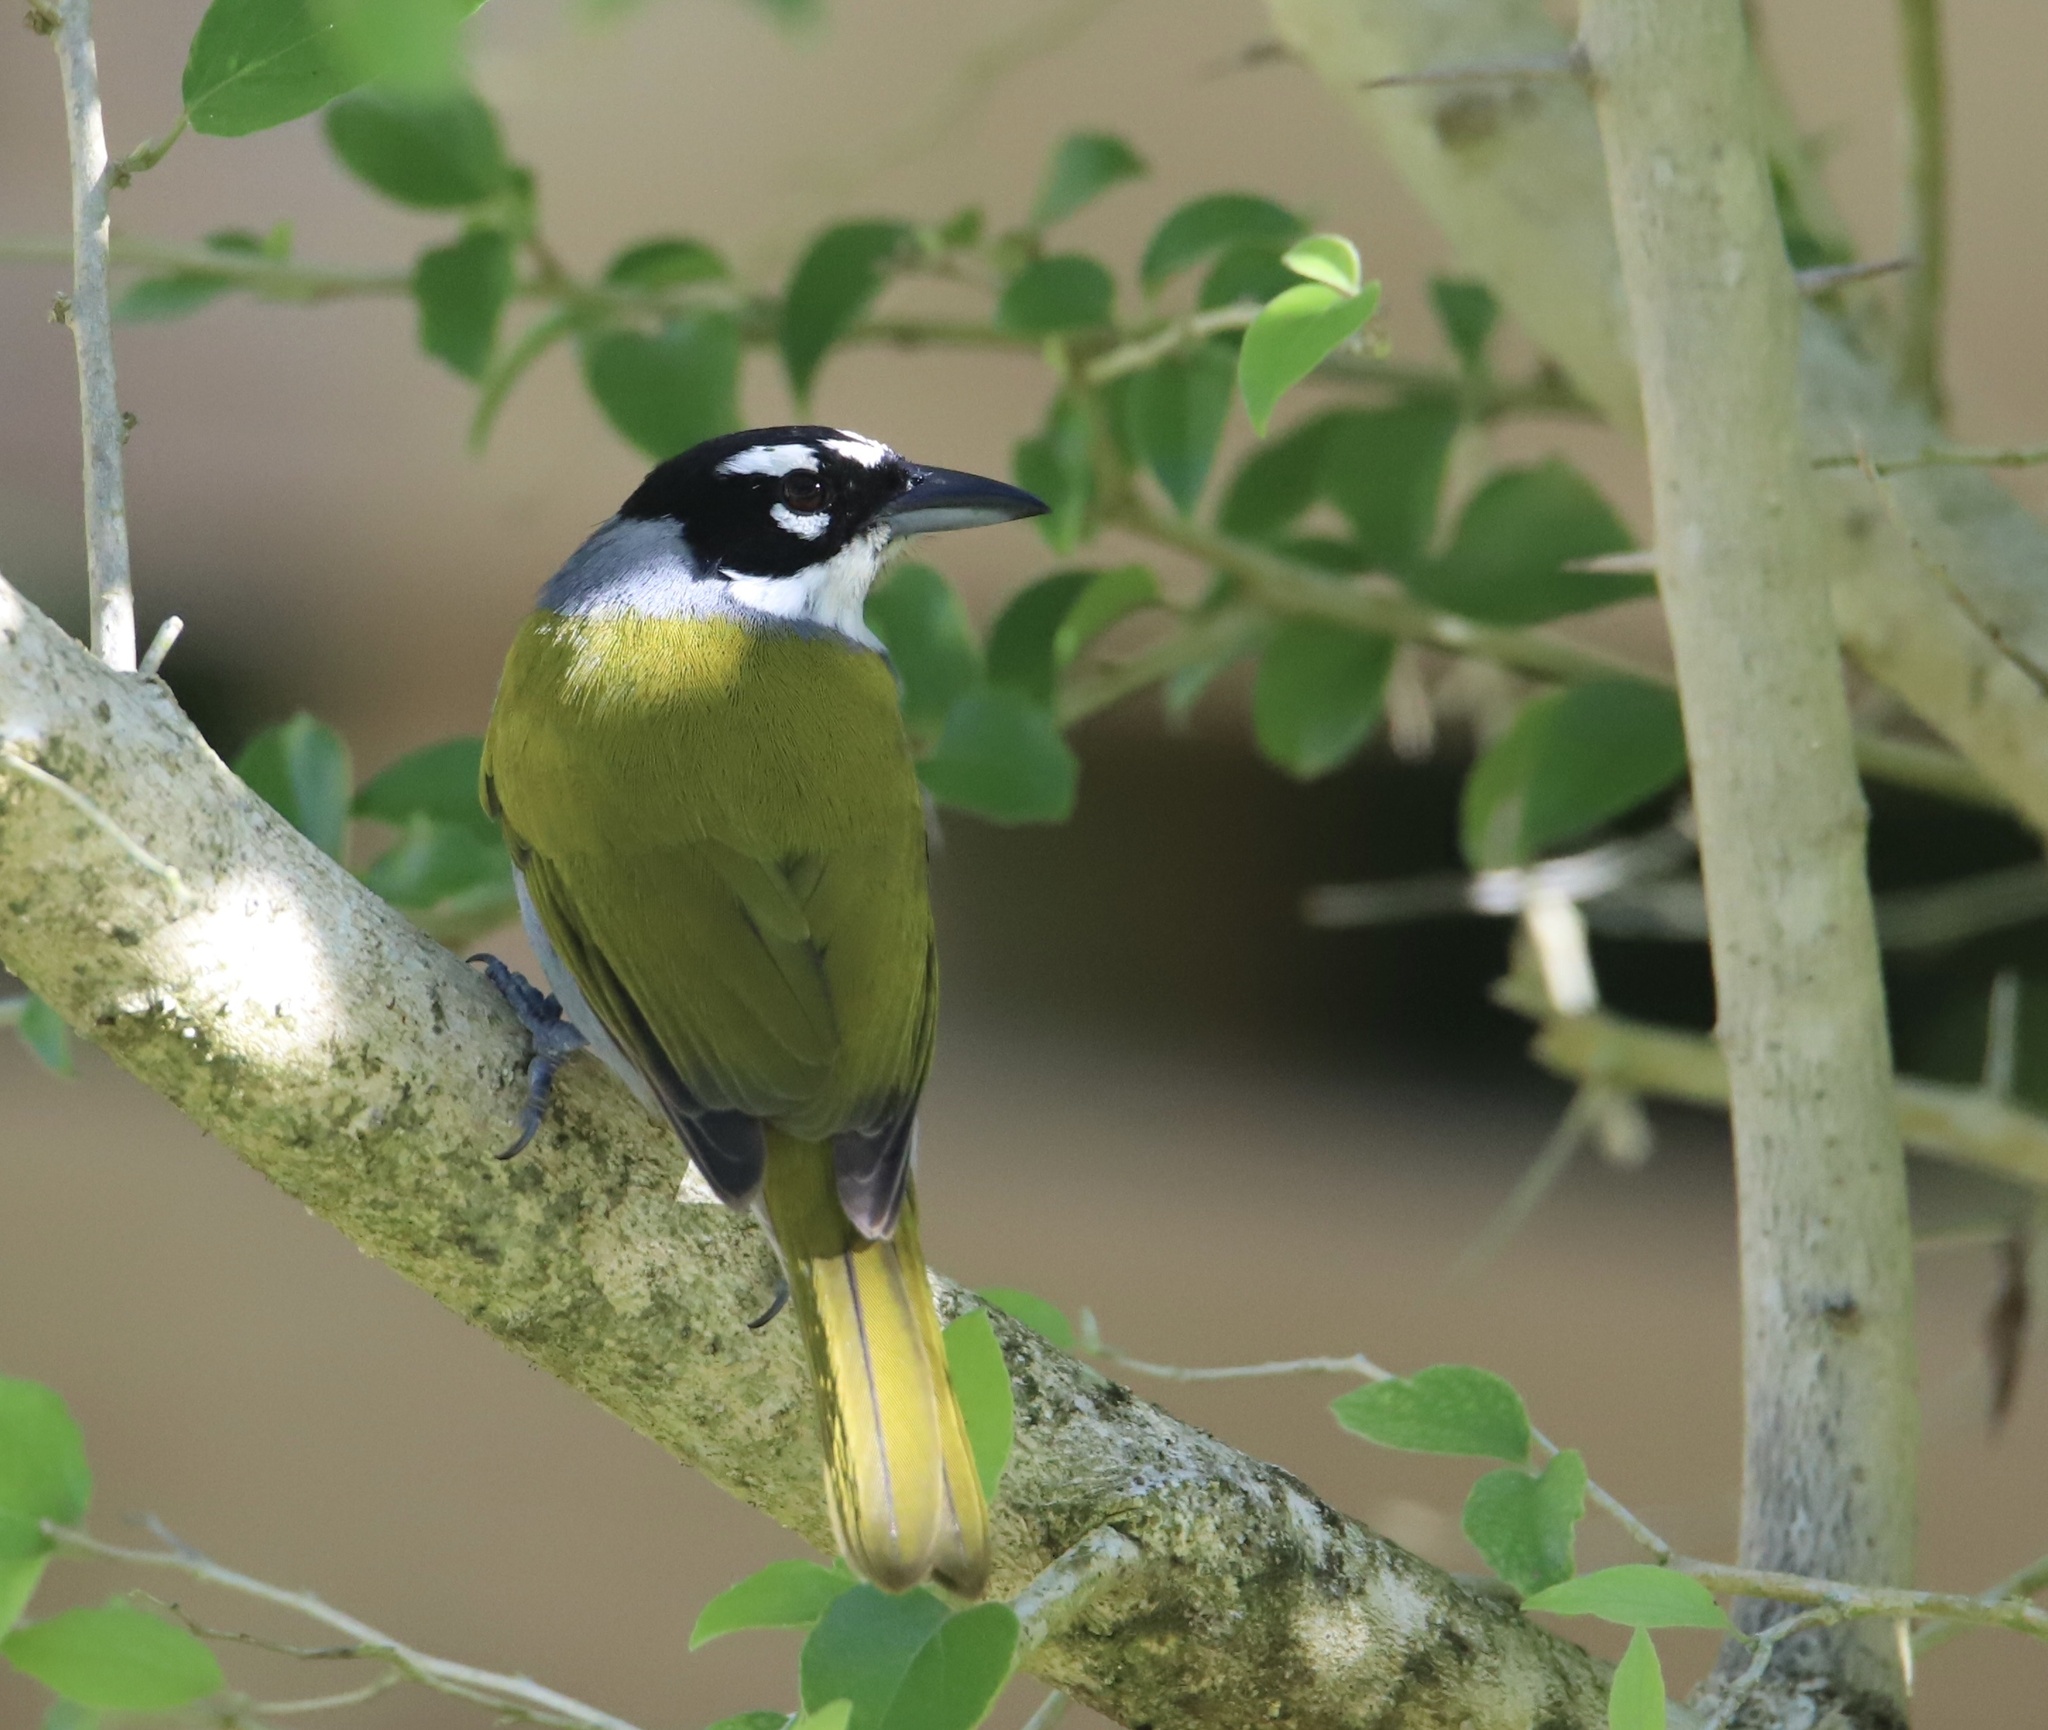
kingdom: Animalia
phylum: Chordata
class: Aves
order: Passeriformes
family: Phaenicophilidae
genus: Phaenicophilus
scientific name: Phaenicophilus palmarum
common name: Black-crowned palm-tanager
